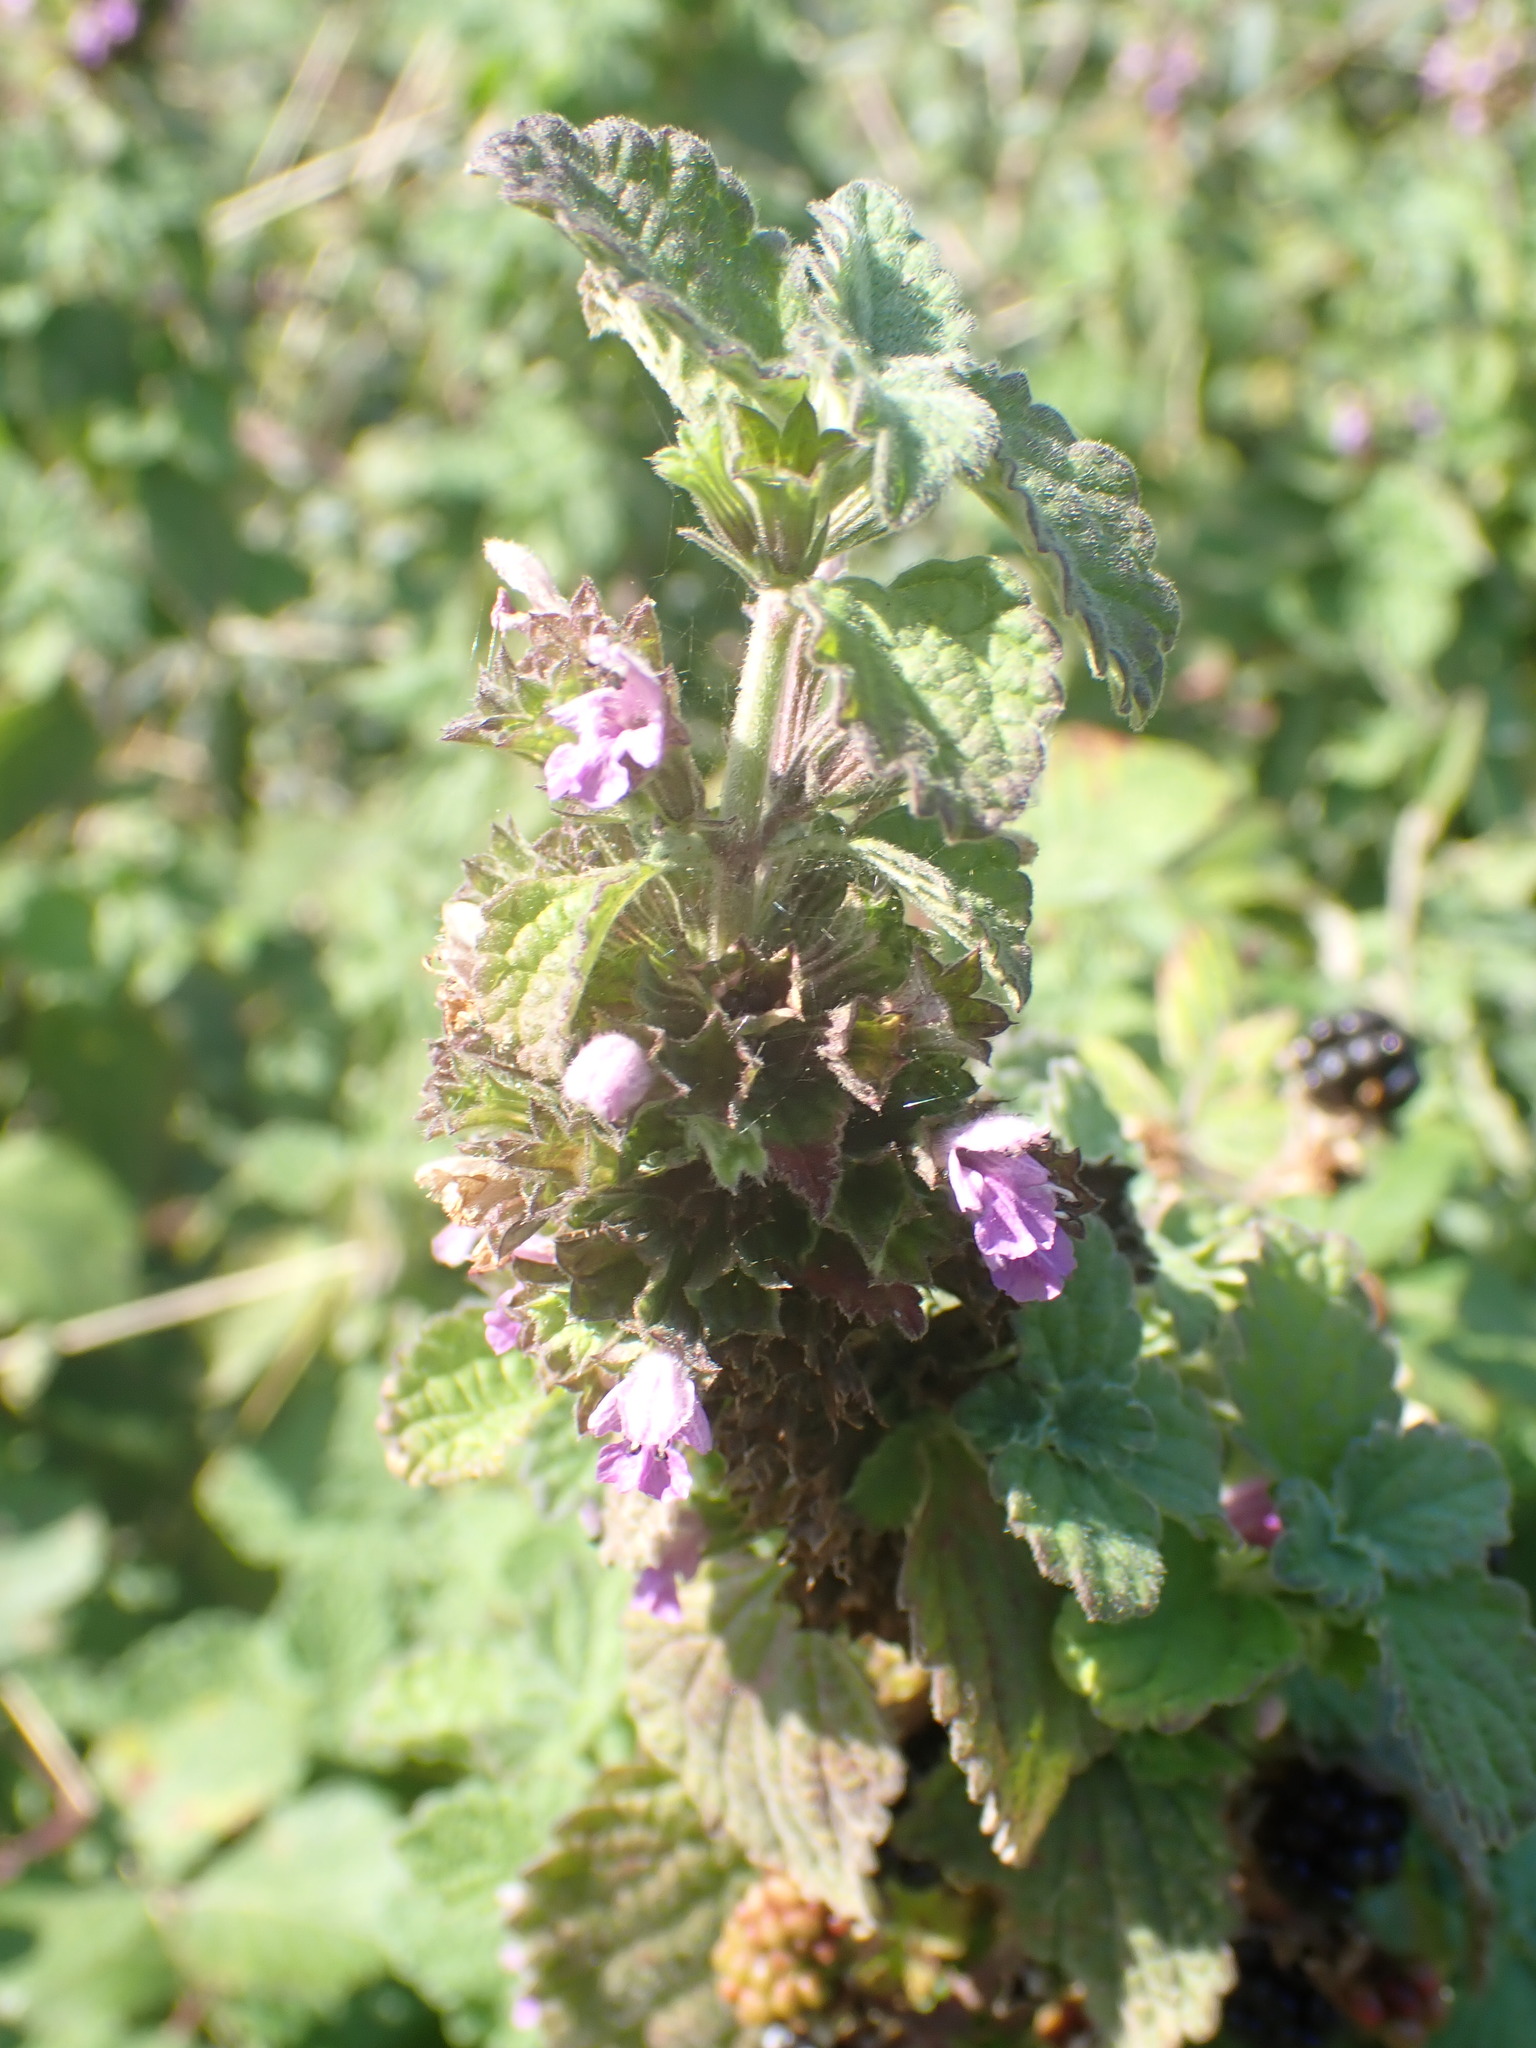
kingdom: Plantae
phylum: Tracheophyta
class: Magnoliopsida
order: Lamiales
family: Lamiaceae
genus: Ballota
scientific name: Ballota nigra
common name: Black horehound
